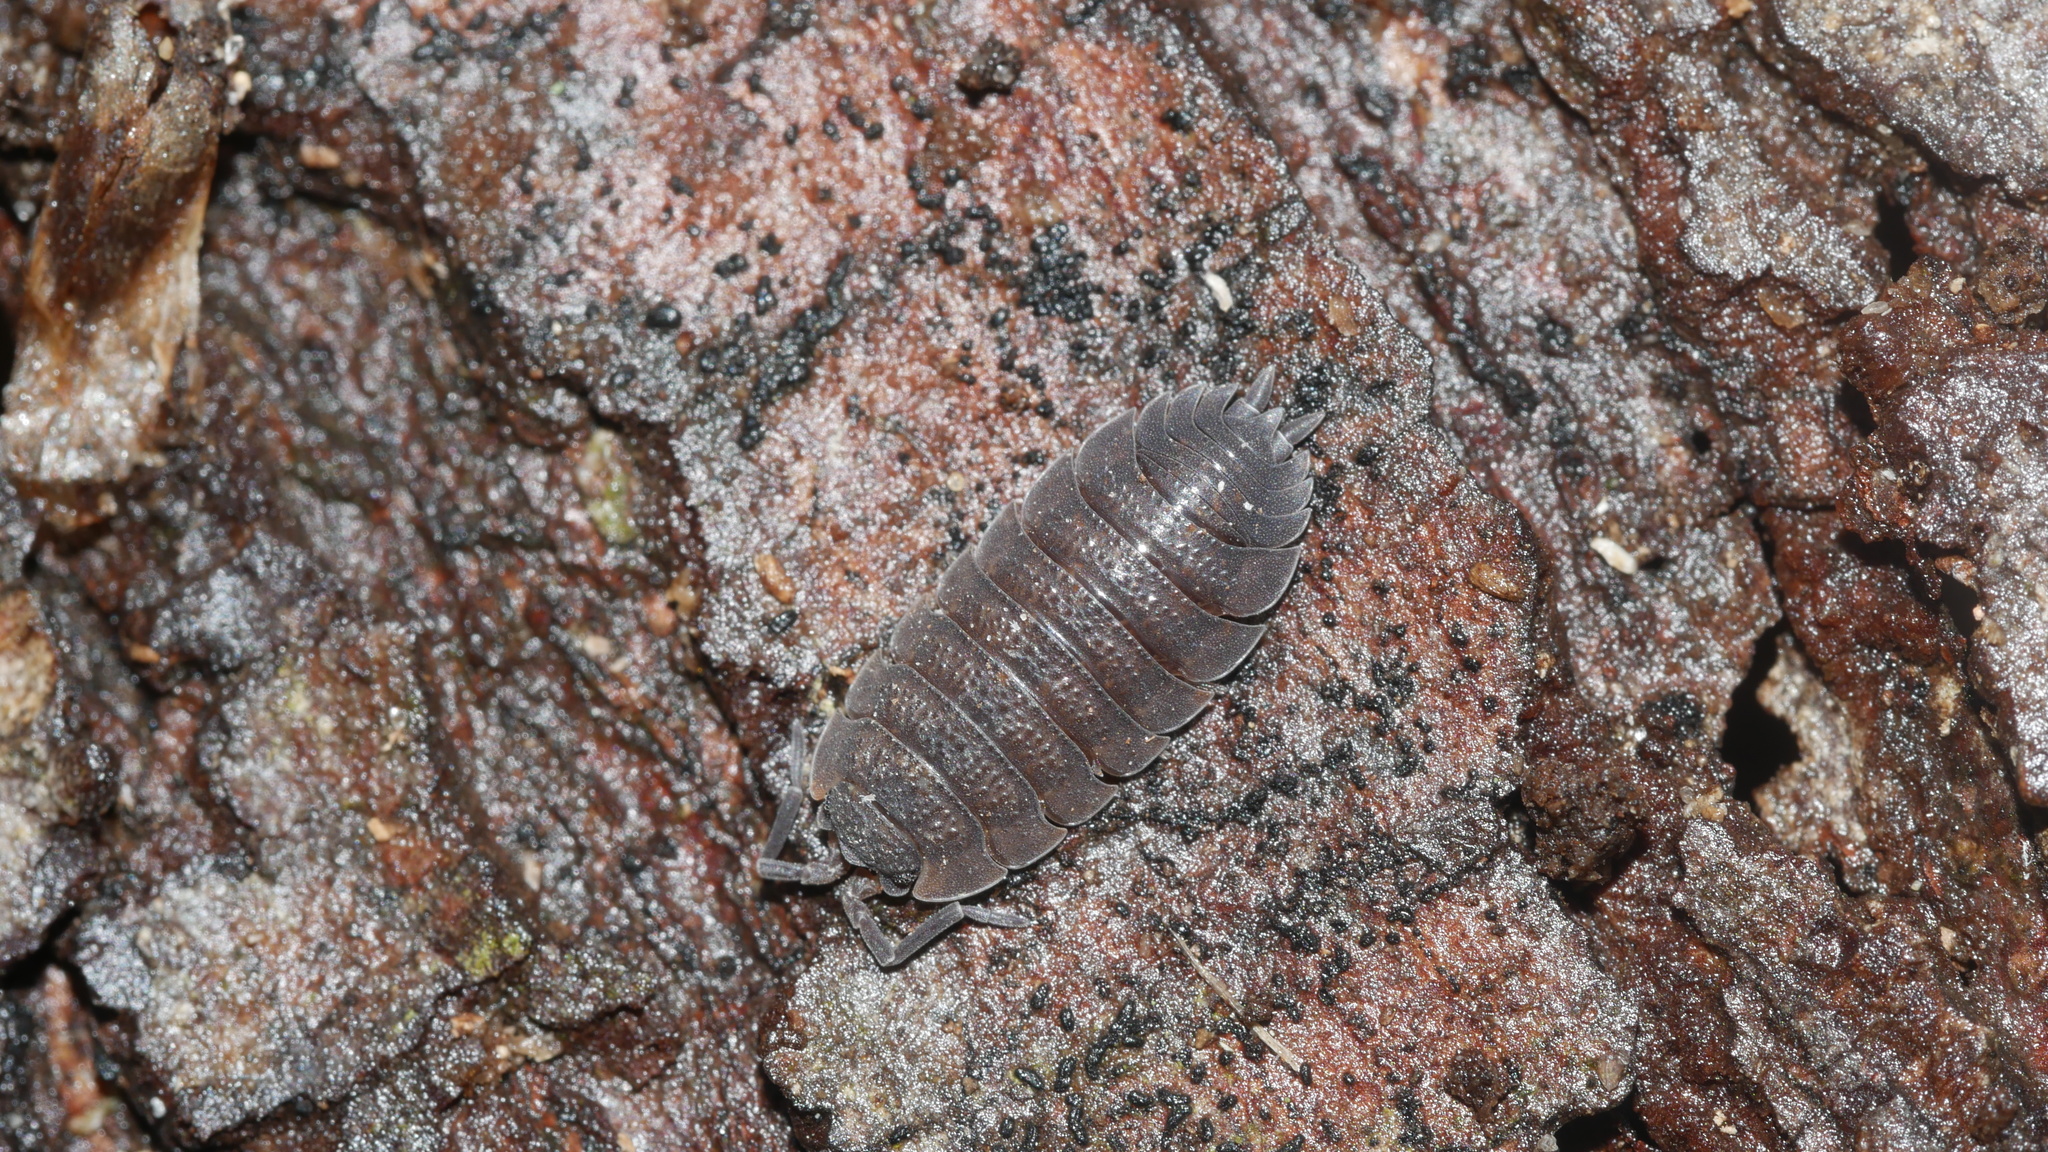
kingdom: Animalia
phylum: Arthropoda
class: Malacostraca
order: Isopoda
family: Porcellionidae
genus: Porcellio
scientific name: Porcellio scaber
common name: Common rough woodlouse
